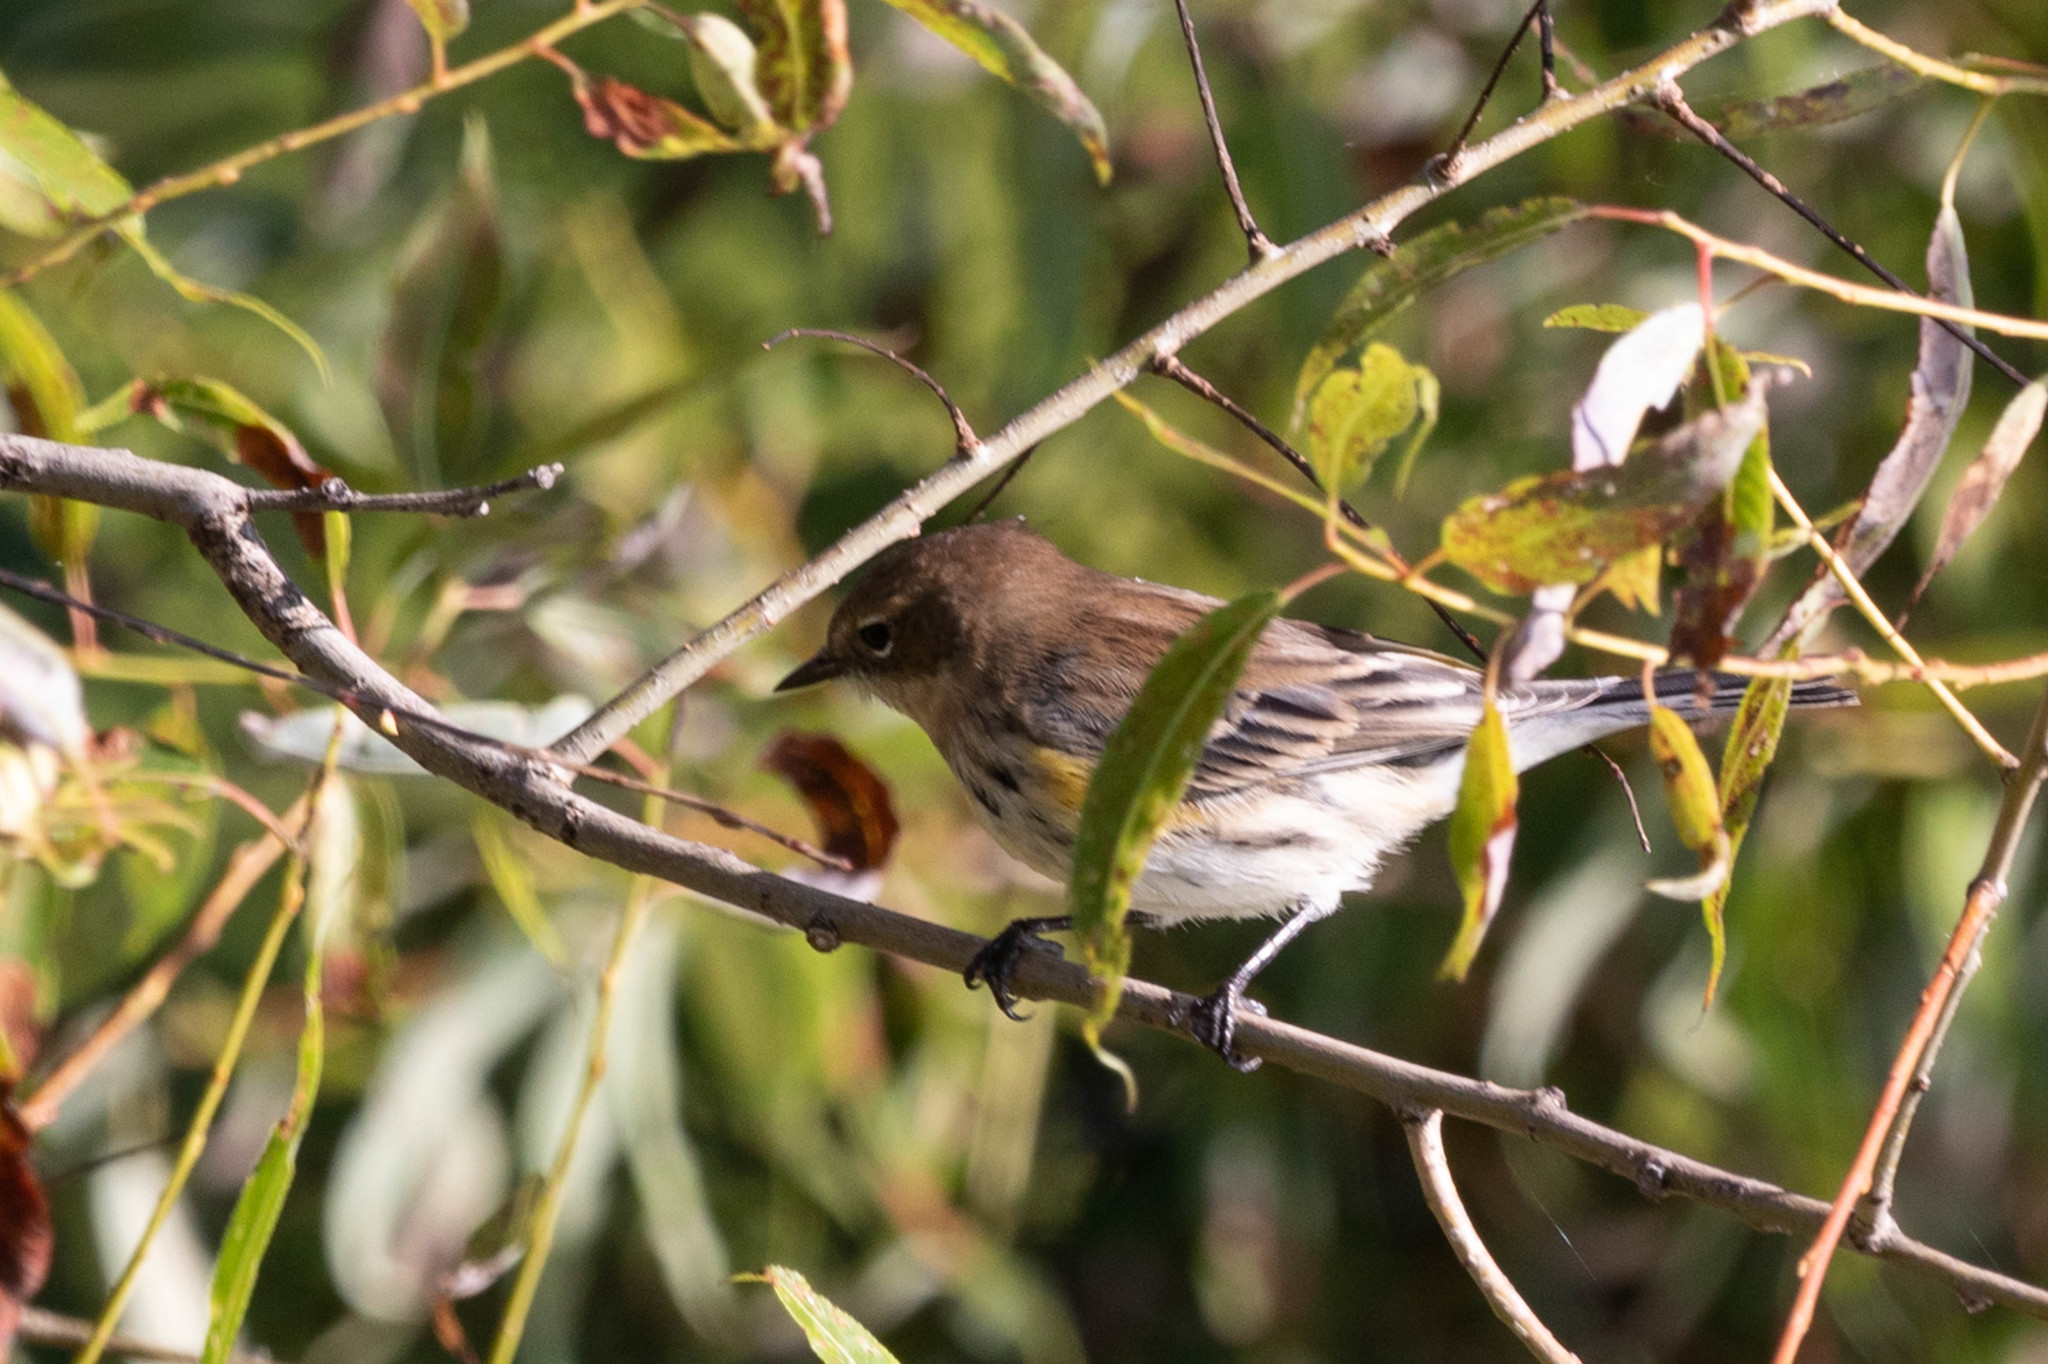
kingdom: Animalia
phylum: Chordata
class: Aves
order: Passeriformes
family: Parulidae
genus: Setophaga
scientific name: Setophaga coronata
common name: Myrtle warbler
